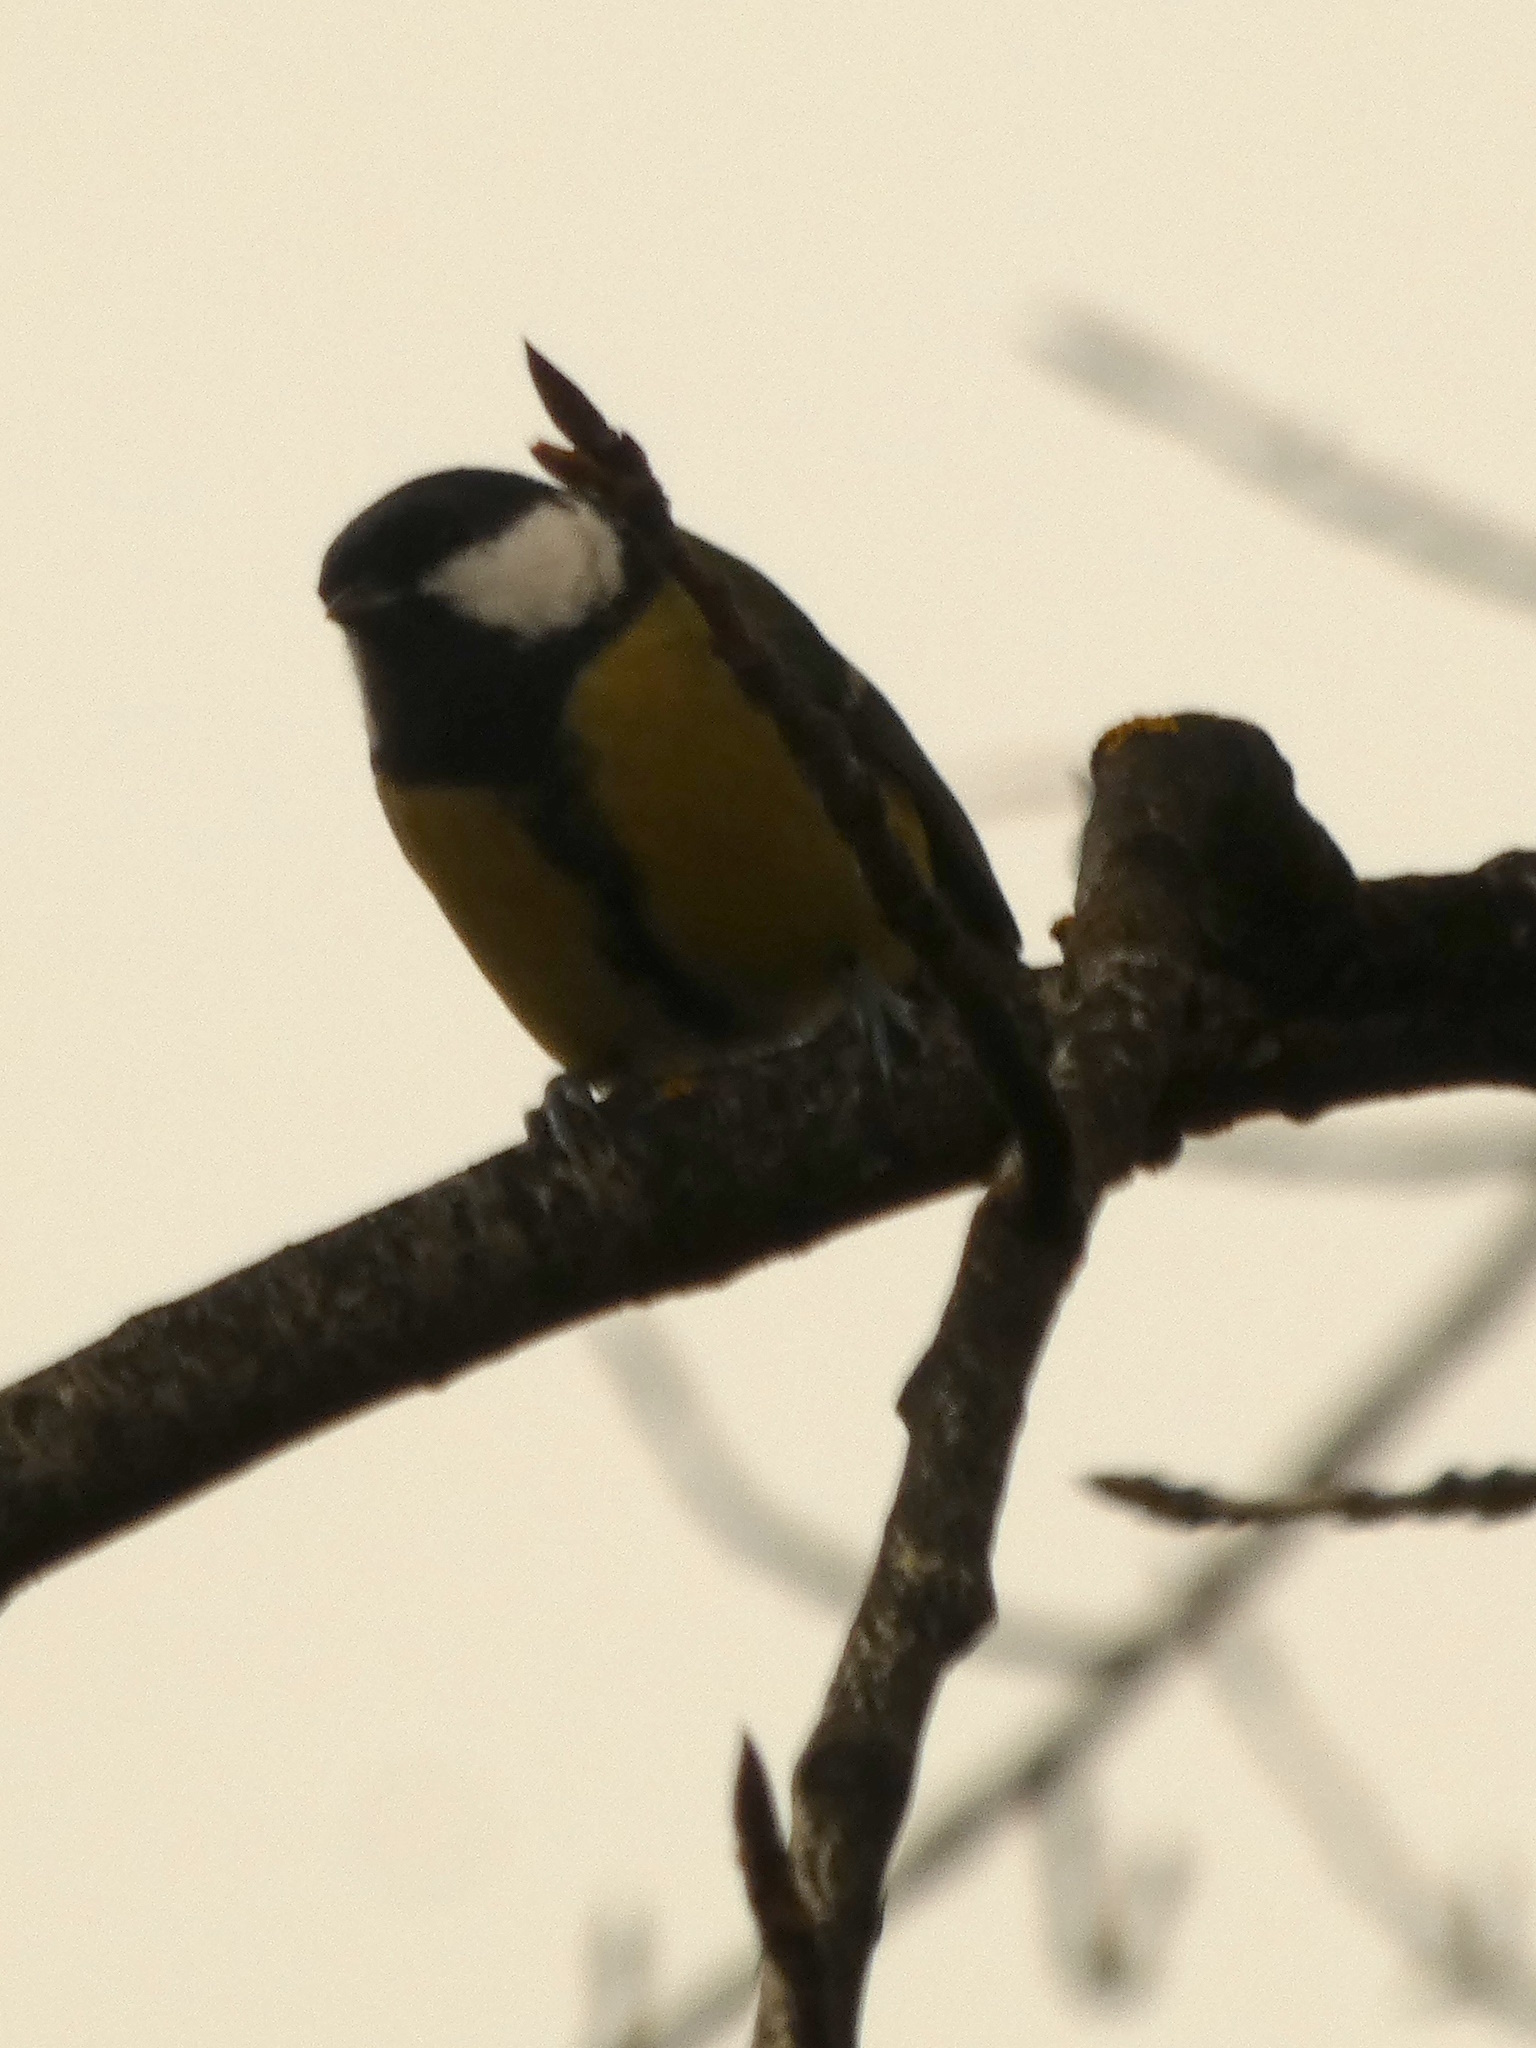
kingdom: Animalia
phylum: Chordata
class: Aves
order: Passeriformes
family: Paridae
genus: Parus
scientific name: Parus major
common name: Great tit
